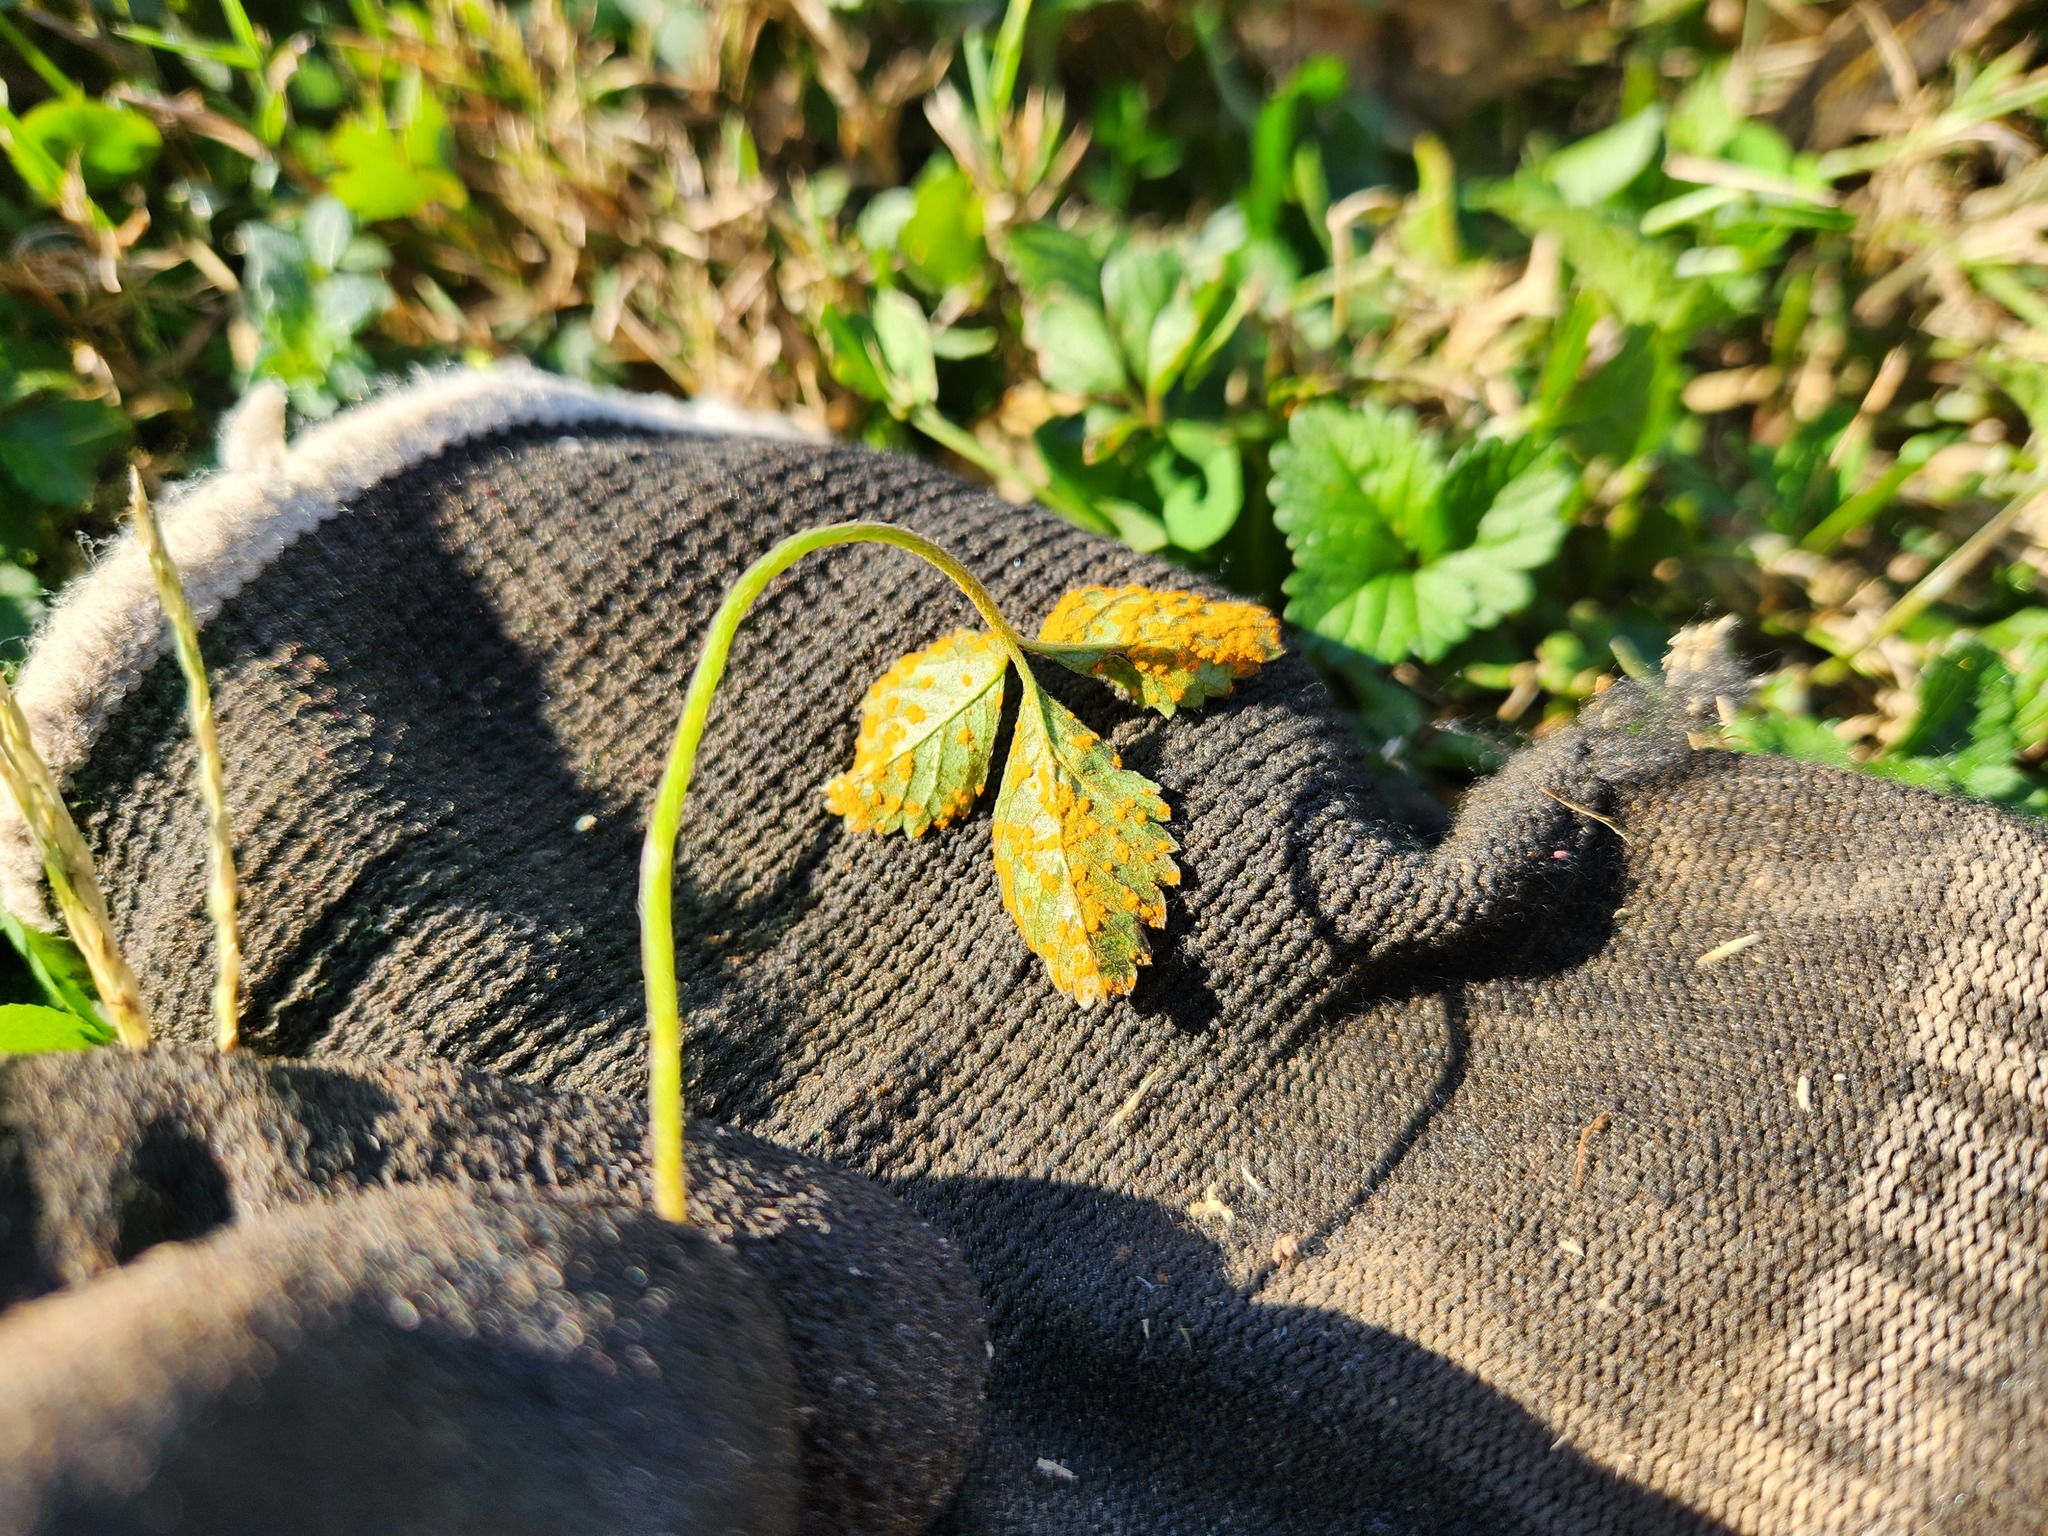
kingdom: Fungi
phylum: Basidiomycota
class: Pucciniomycetes
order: Pucciniales
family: Phragmidiaceae
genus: Phragmidium
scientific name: Phragmidium mexicanum
